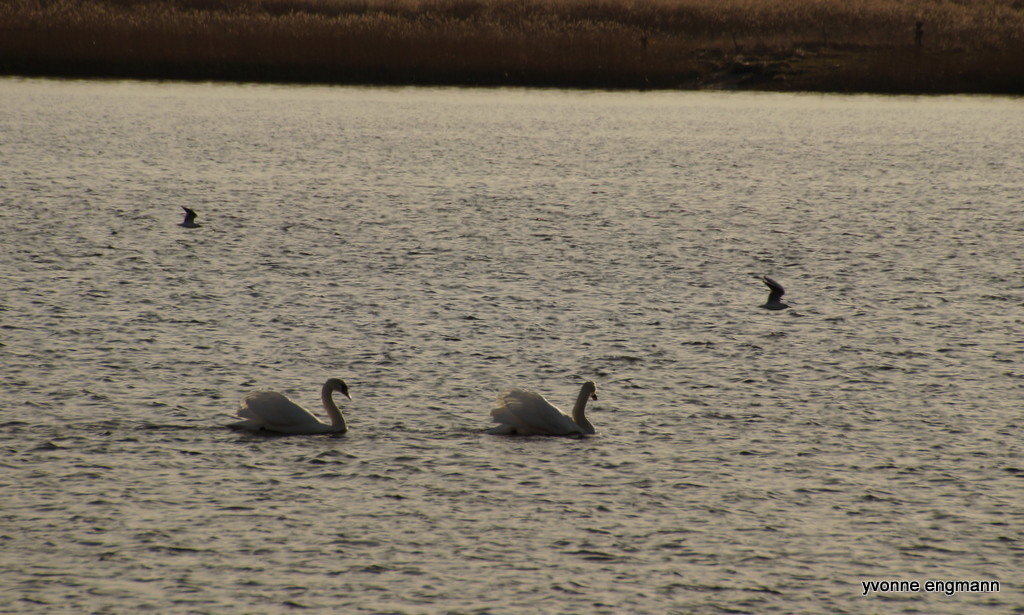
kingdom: Animalia
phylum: Chordata
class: Aves
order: Anseriformes
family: Anatidae
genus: Cygnus
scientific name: Cygnus olor
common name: Mute swan
